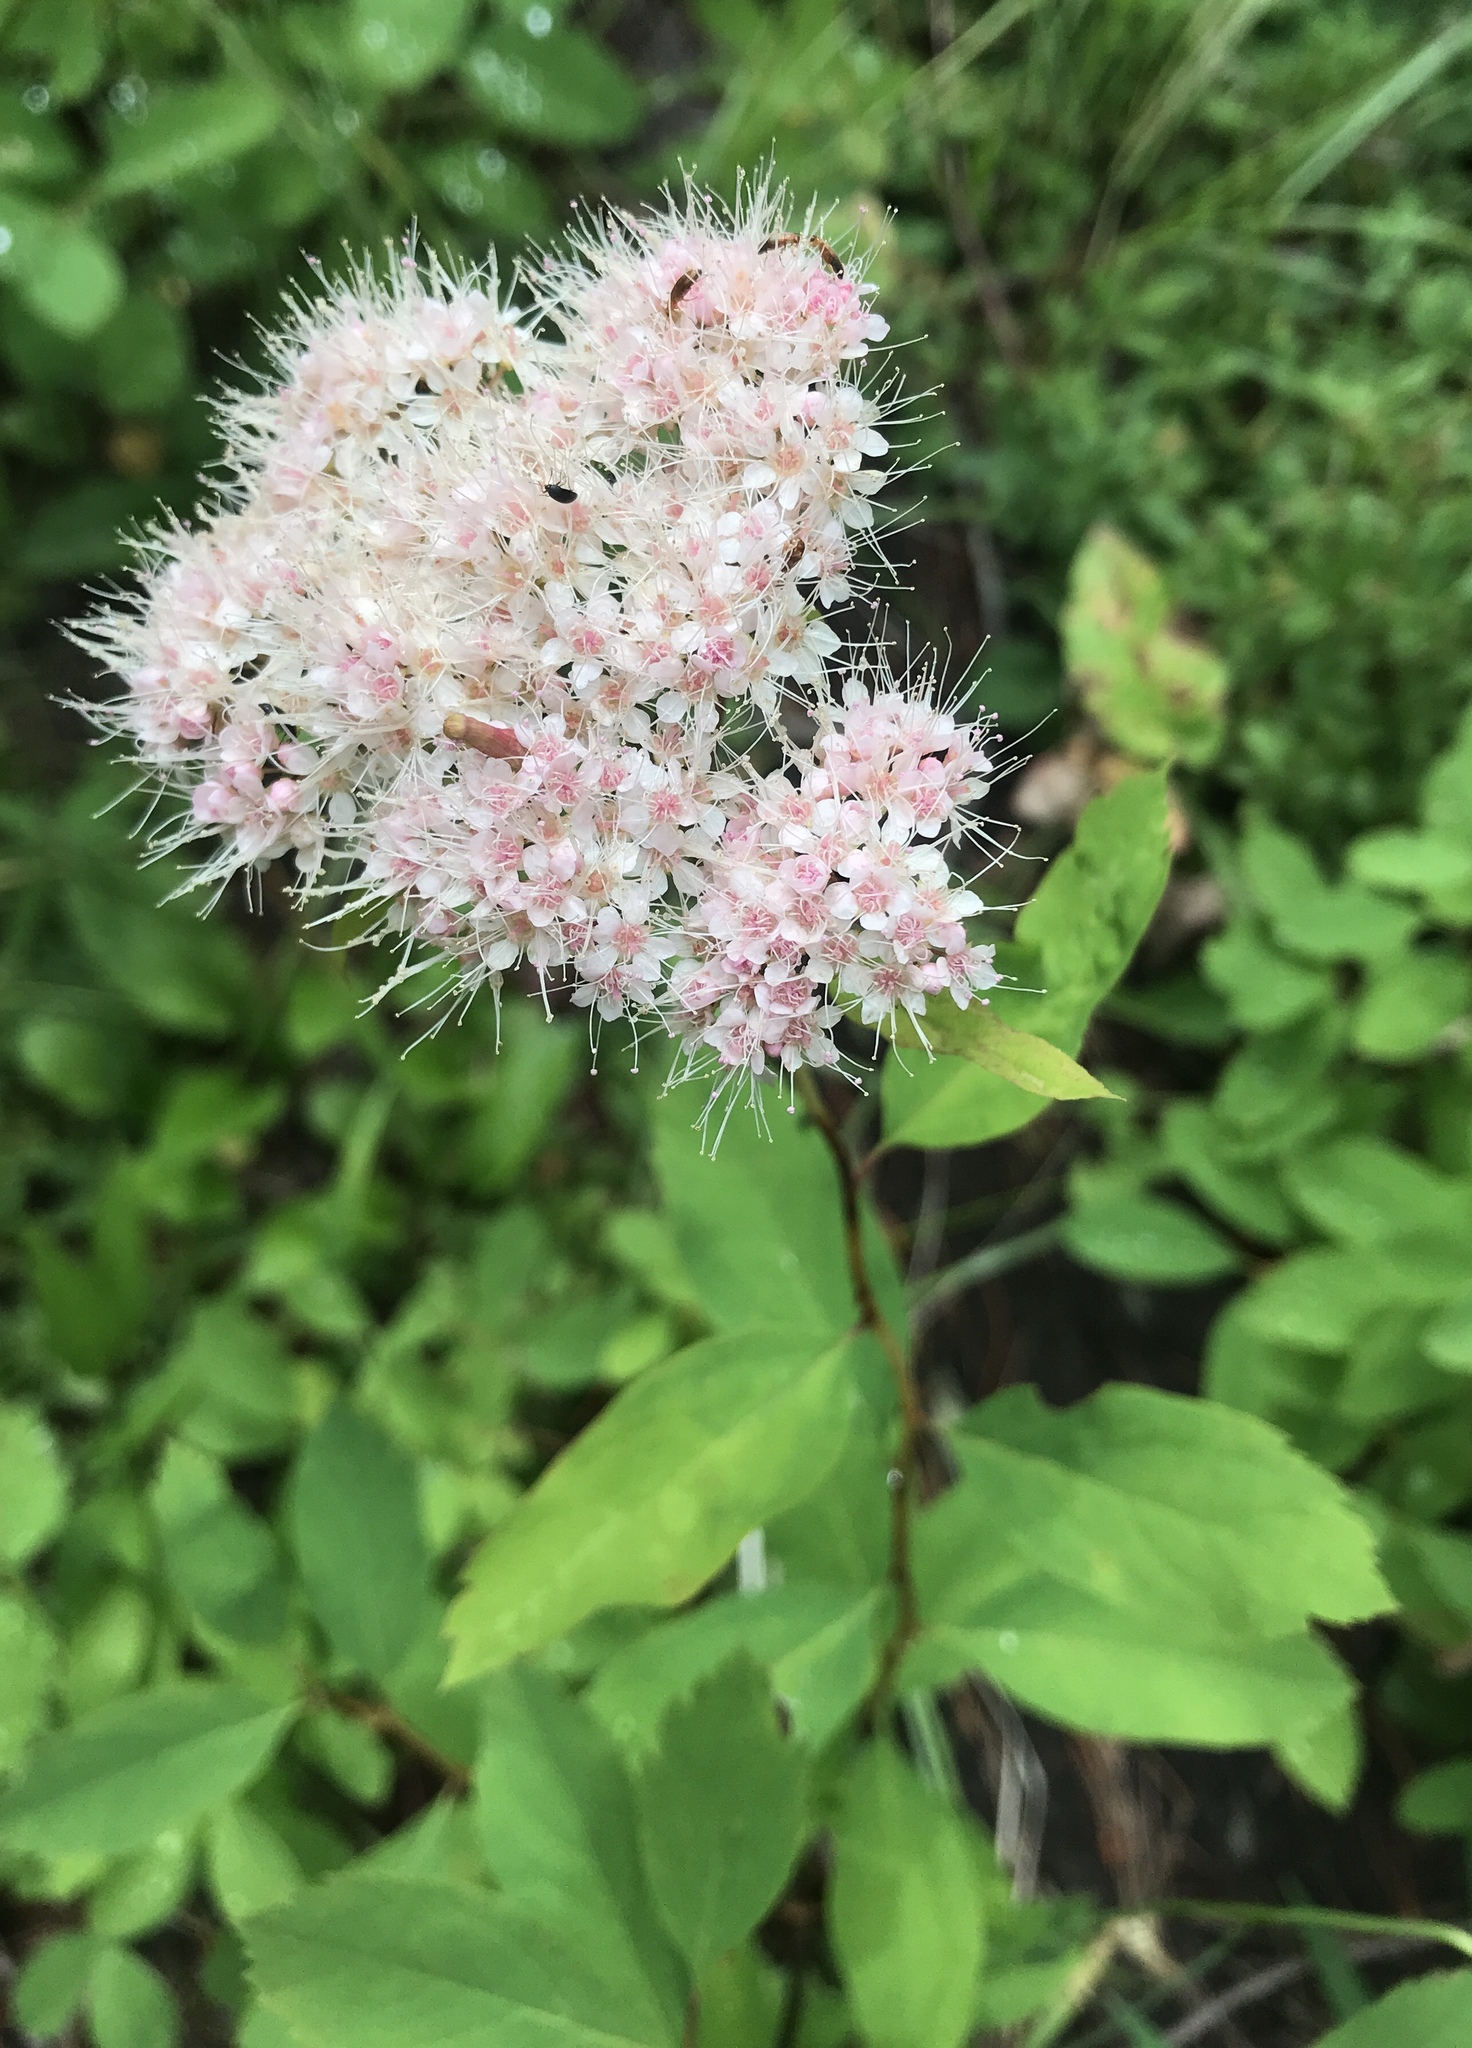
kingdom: Plantae
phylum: Tracheophyta
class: Magnoliopsida
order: Rosales
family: Rosaceae
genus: Spiraea
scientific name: Spiraea splendens
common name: Subalpine meadowsweet
